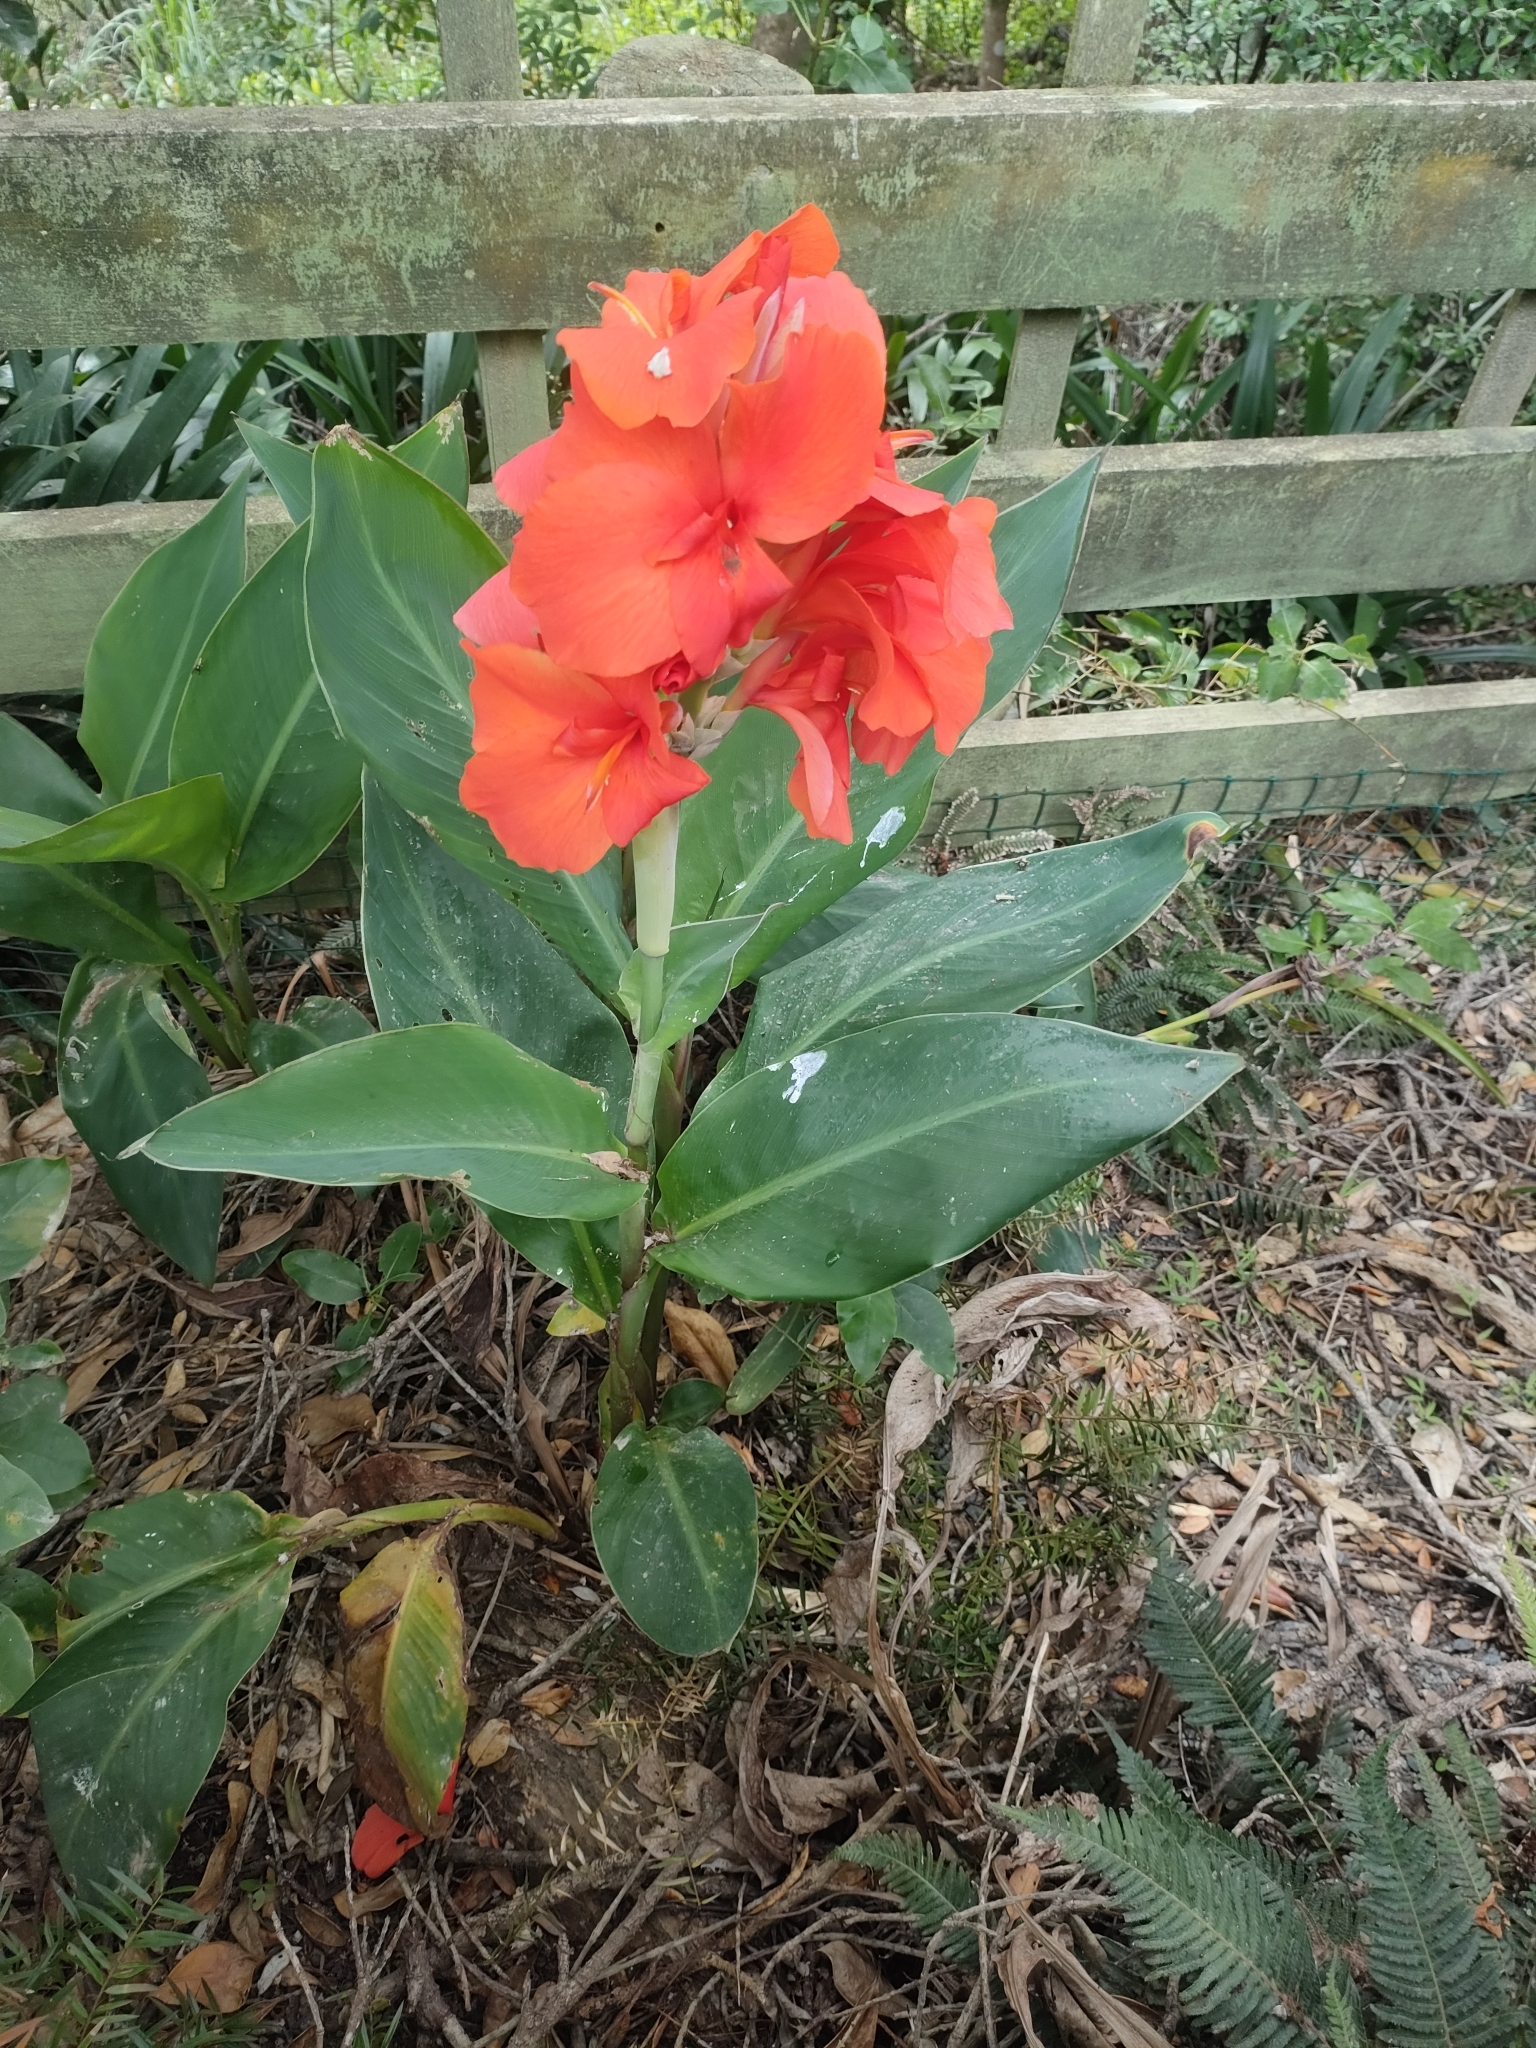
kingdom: Plantae
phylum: Tracheophyta
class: Liliopsida
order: Zingiberales
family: Cannaceae
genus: Canna
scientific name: Canna indica
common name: Indian shot
